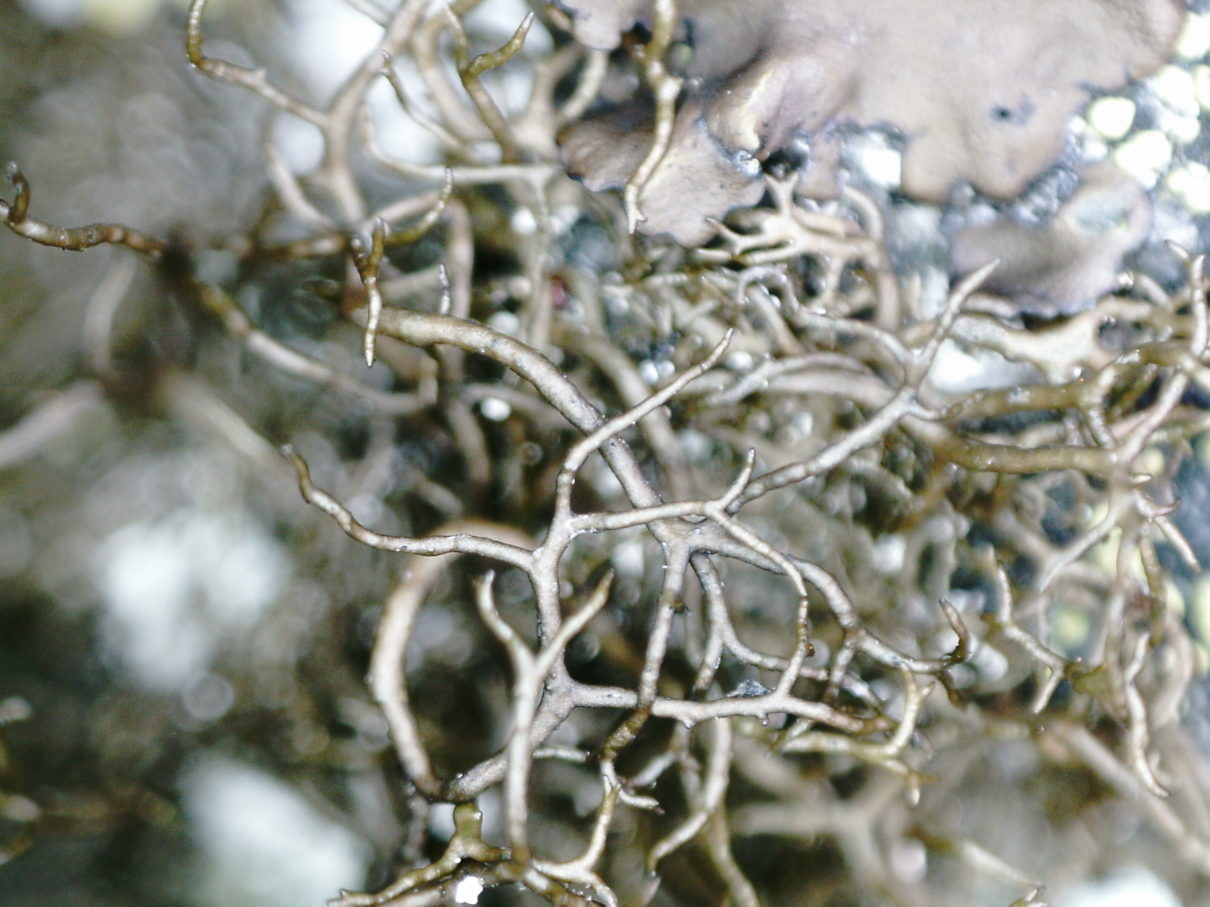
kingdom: Fungi
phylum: Ascomycota
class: Lecanoromycetes
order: Lecanorales
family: Parmeliaceae
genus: Pseudephebe
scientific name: Pseudephebe pubescens
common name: Fine rockwool lichen
